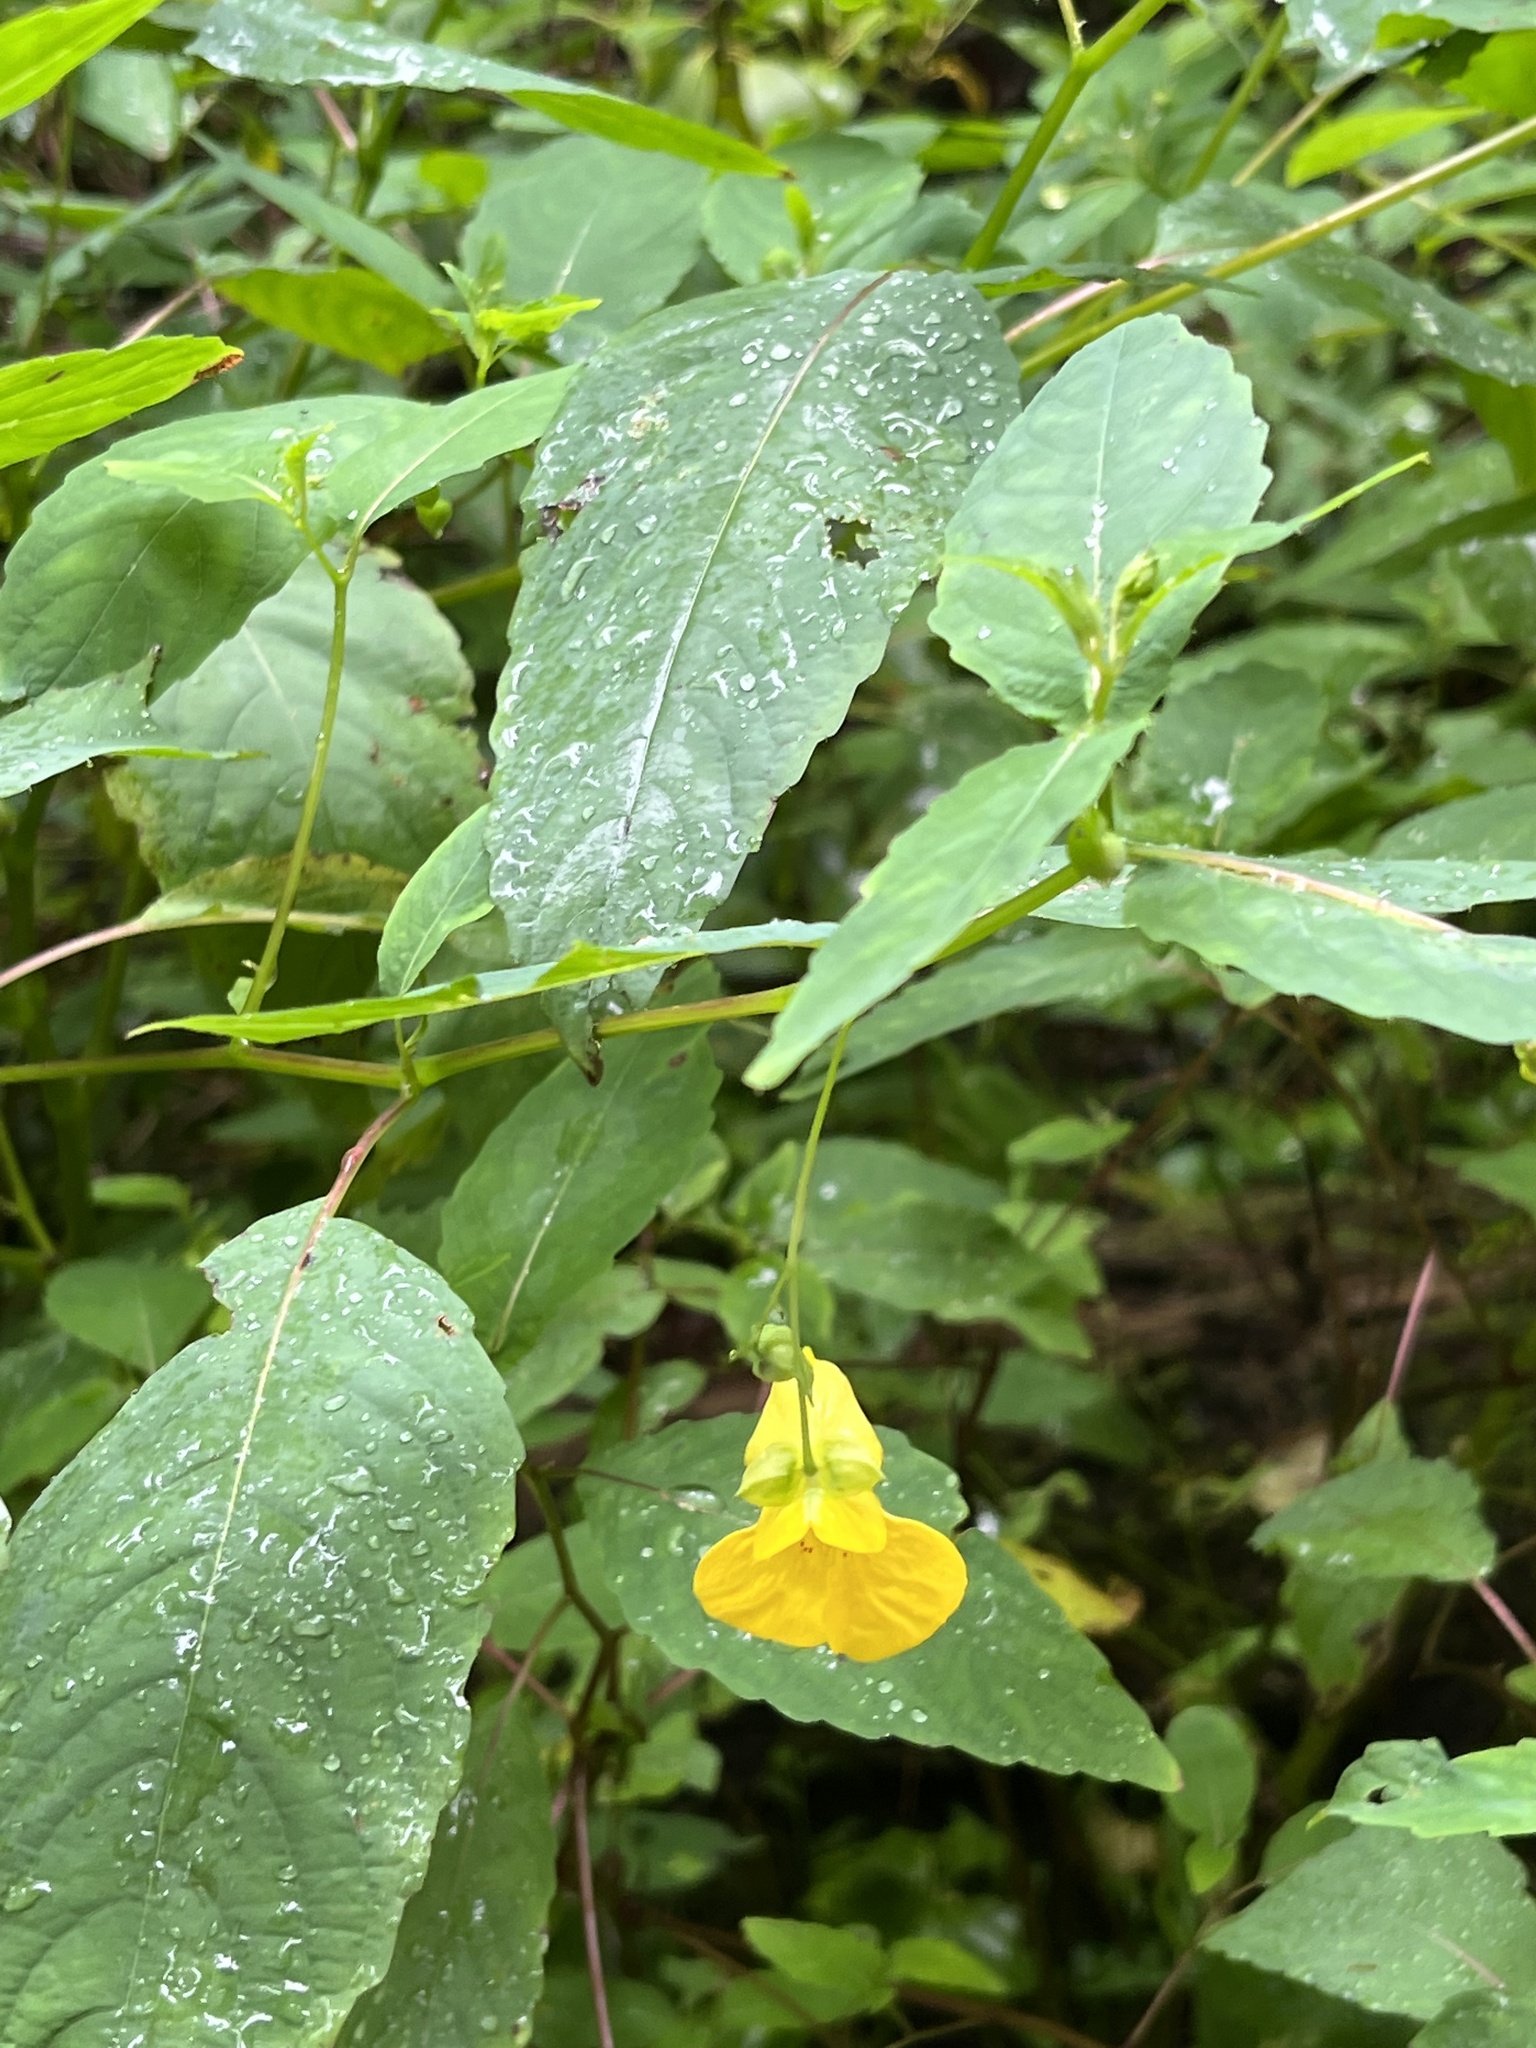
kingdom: Plantae
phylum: Tracheophyta
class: Magnoliopsida
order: Ericales
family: Balsaminaceae
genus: Impatiens
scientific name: Impatiens pallida
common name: Pale snapweed
